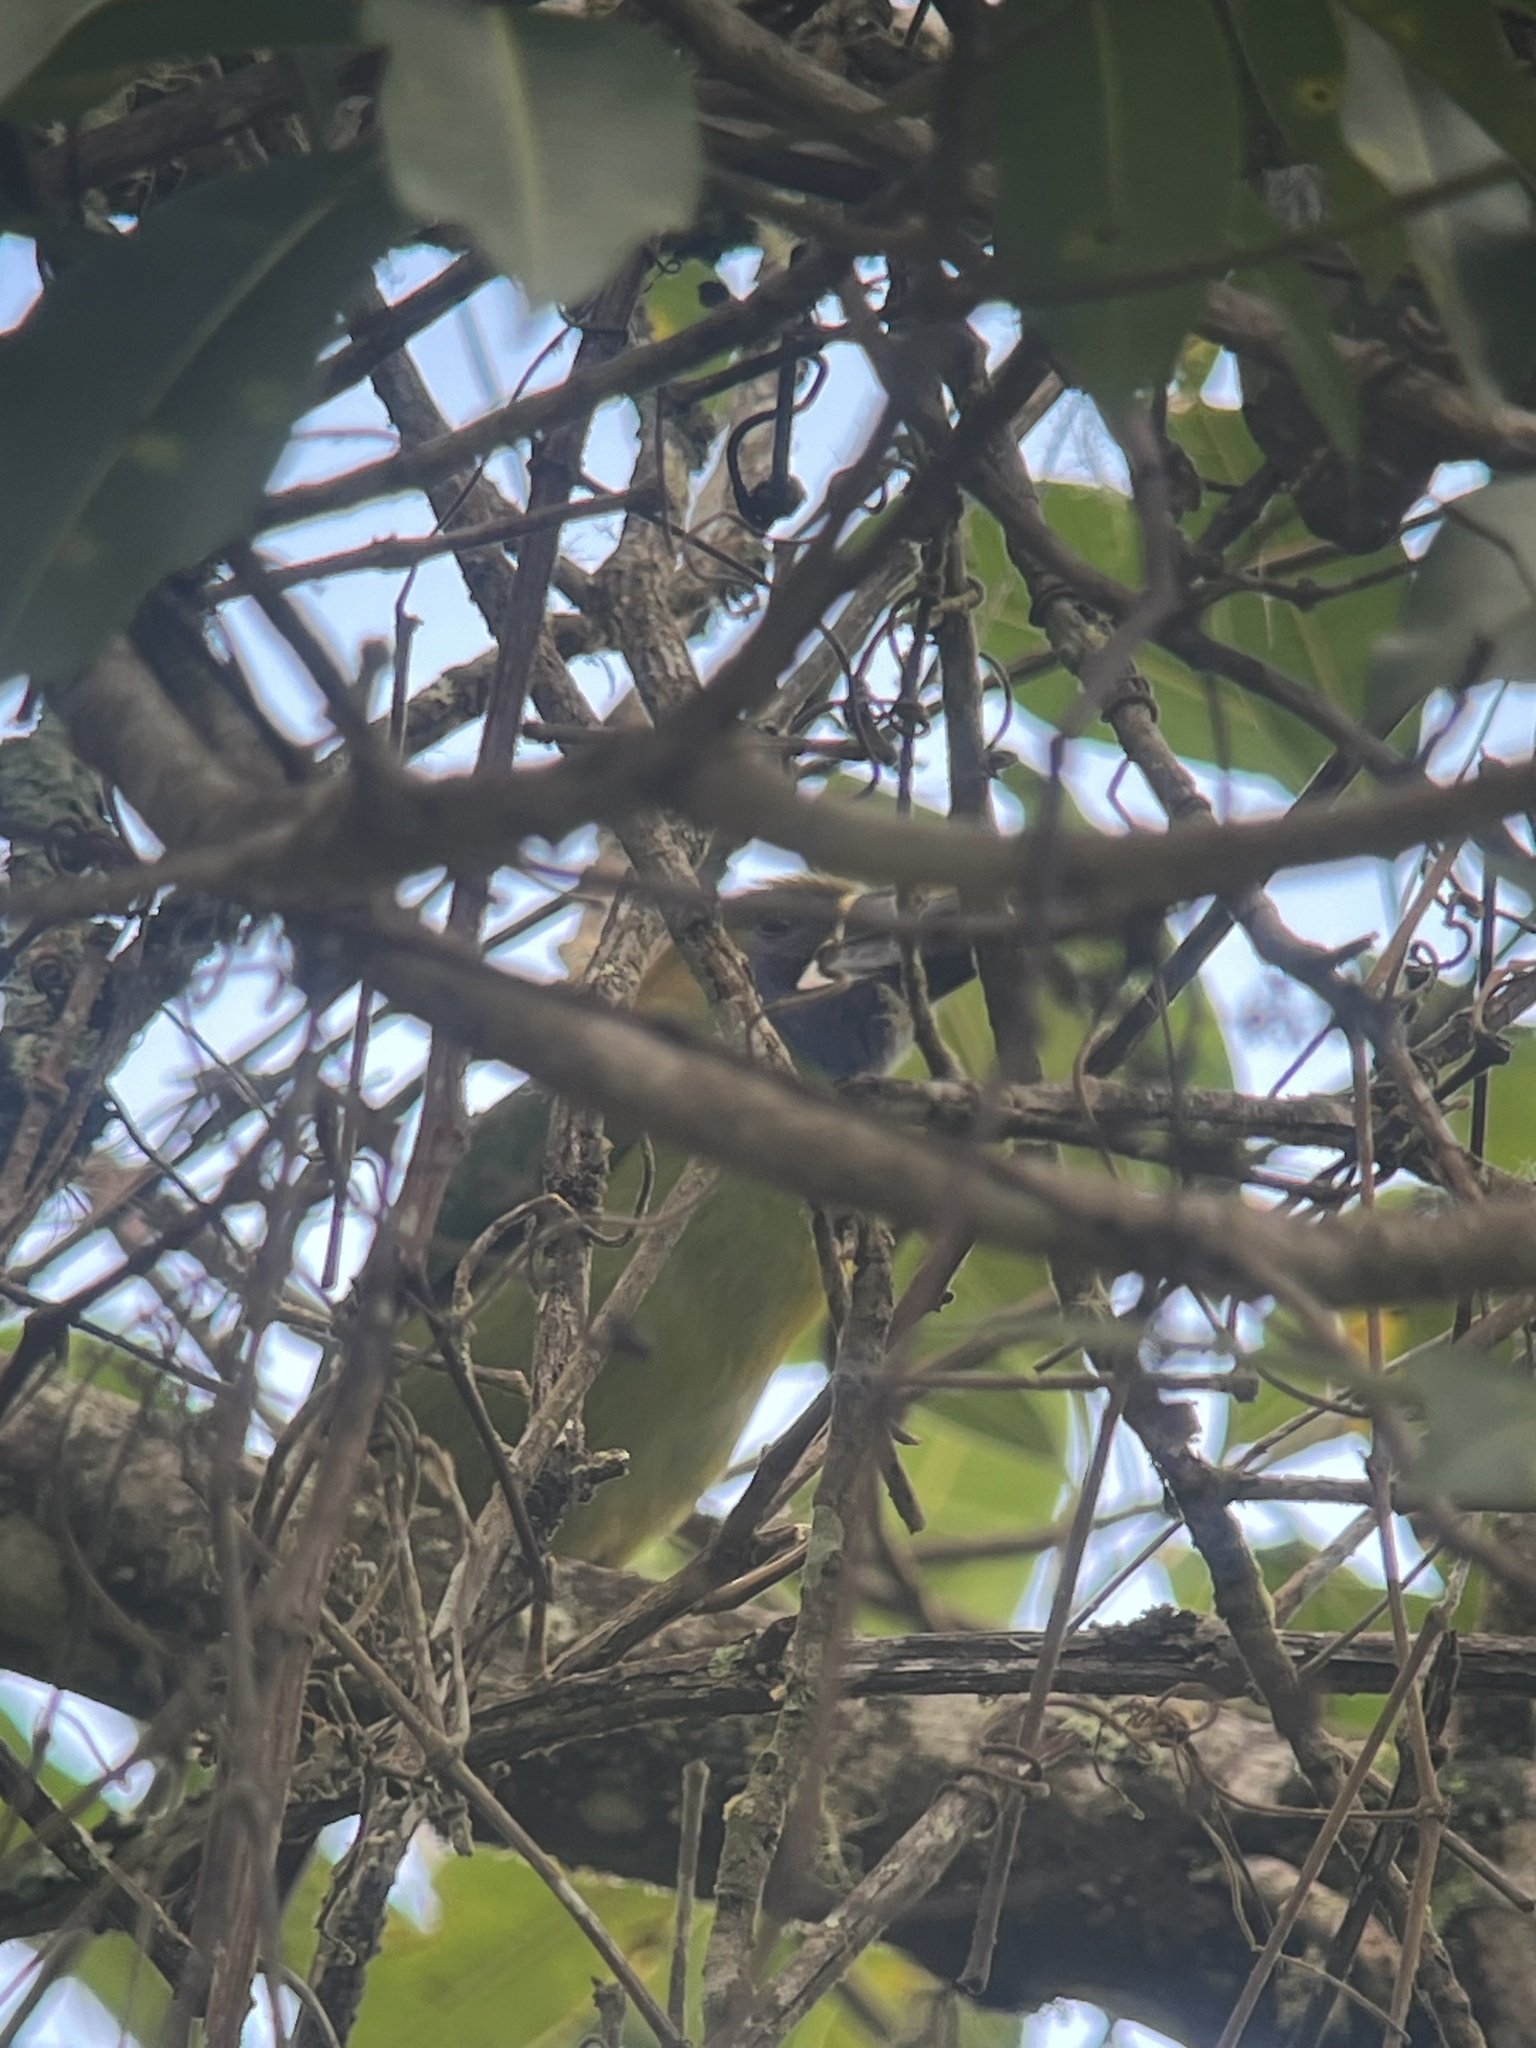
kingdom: Animalia
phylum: Chordata
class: Aves
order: Piciformes
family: Ramphastidae
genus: Aulacorhynchus
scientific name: Aulacorhynchus prasinus
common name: Emerald toucanet
